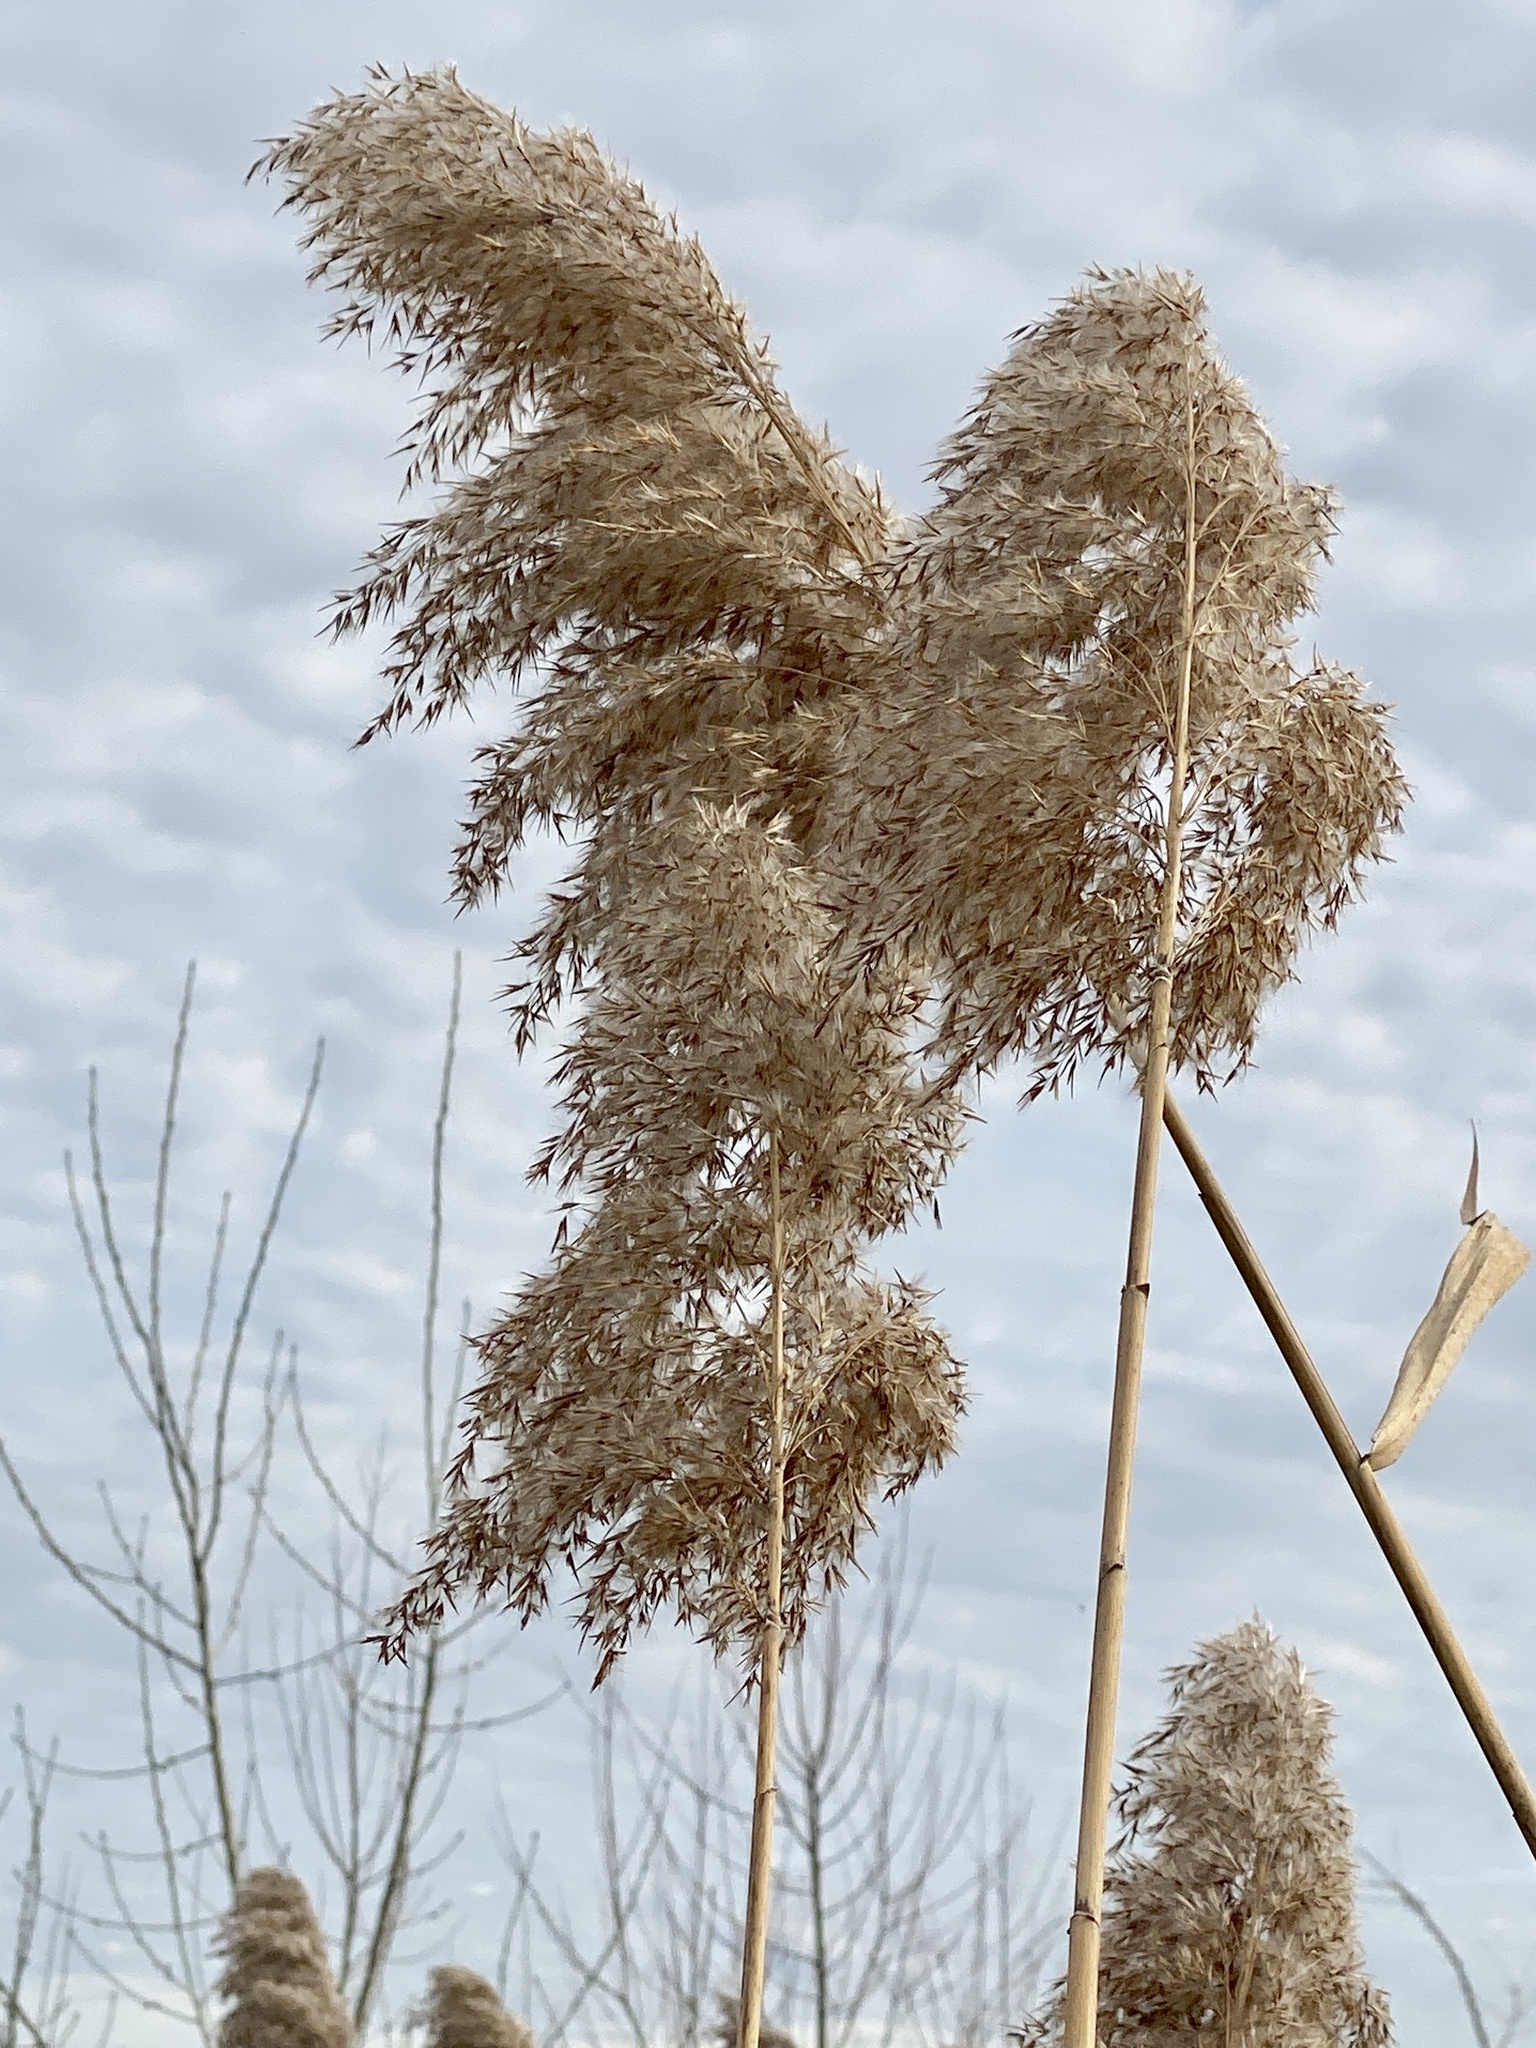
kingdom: Plantae
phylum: Tracheophyta
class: Liliopsida
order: Poales
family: Poaceae
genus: Phragmites
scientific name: Phragmites australis
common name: Common reed
